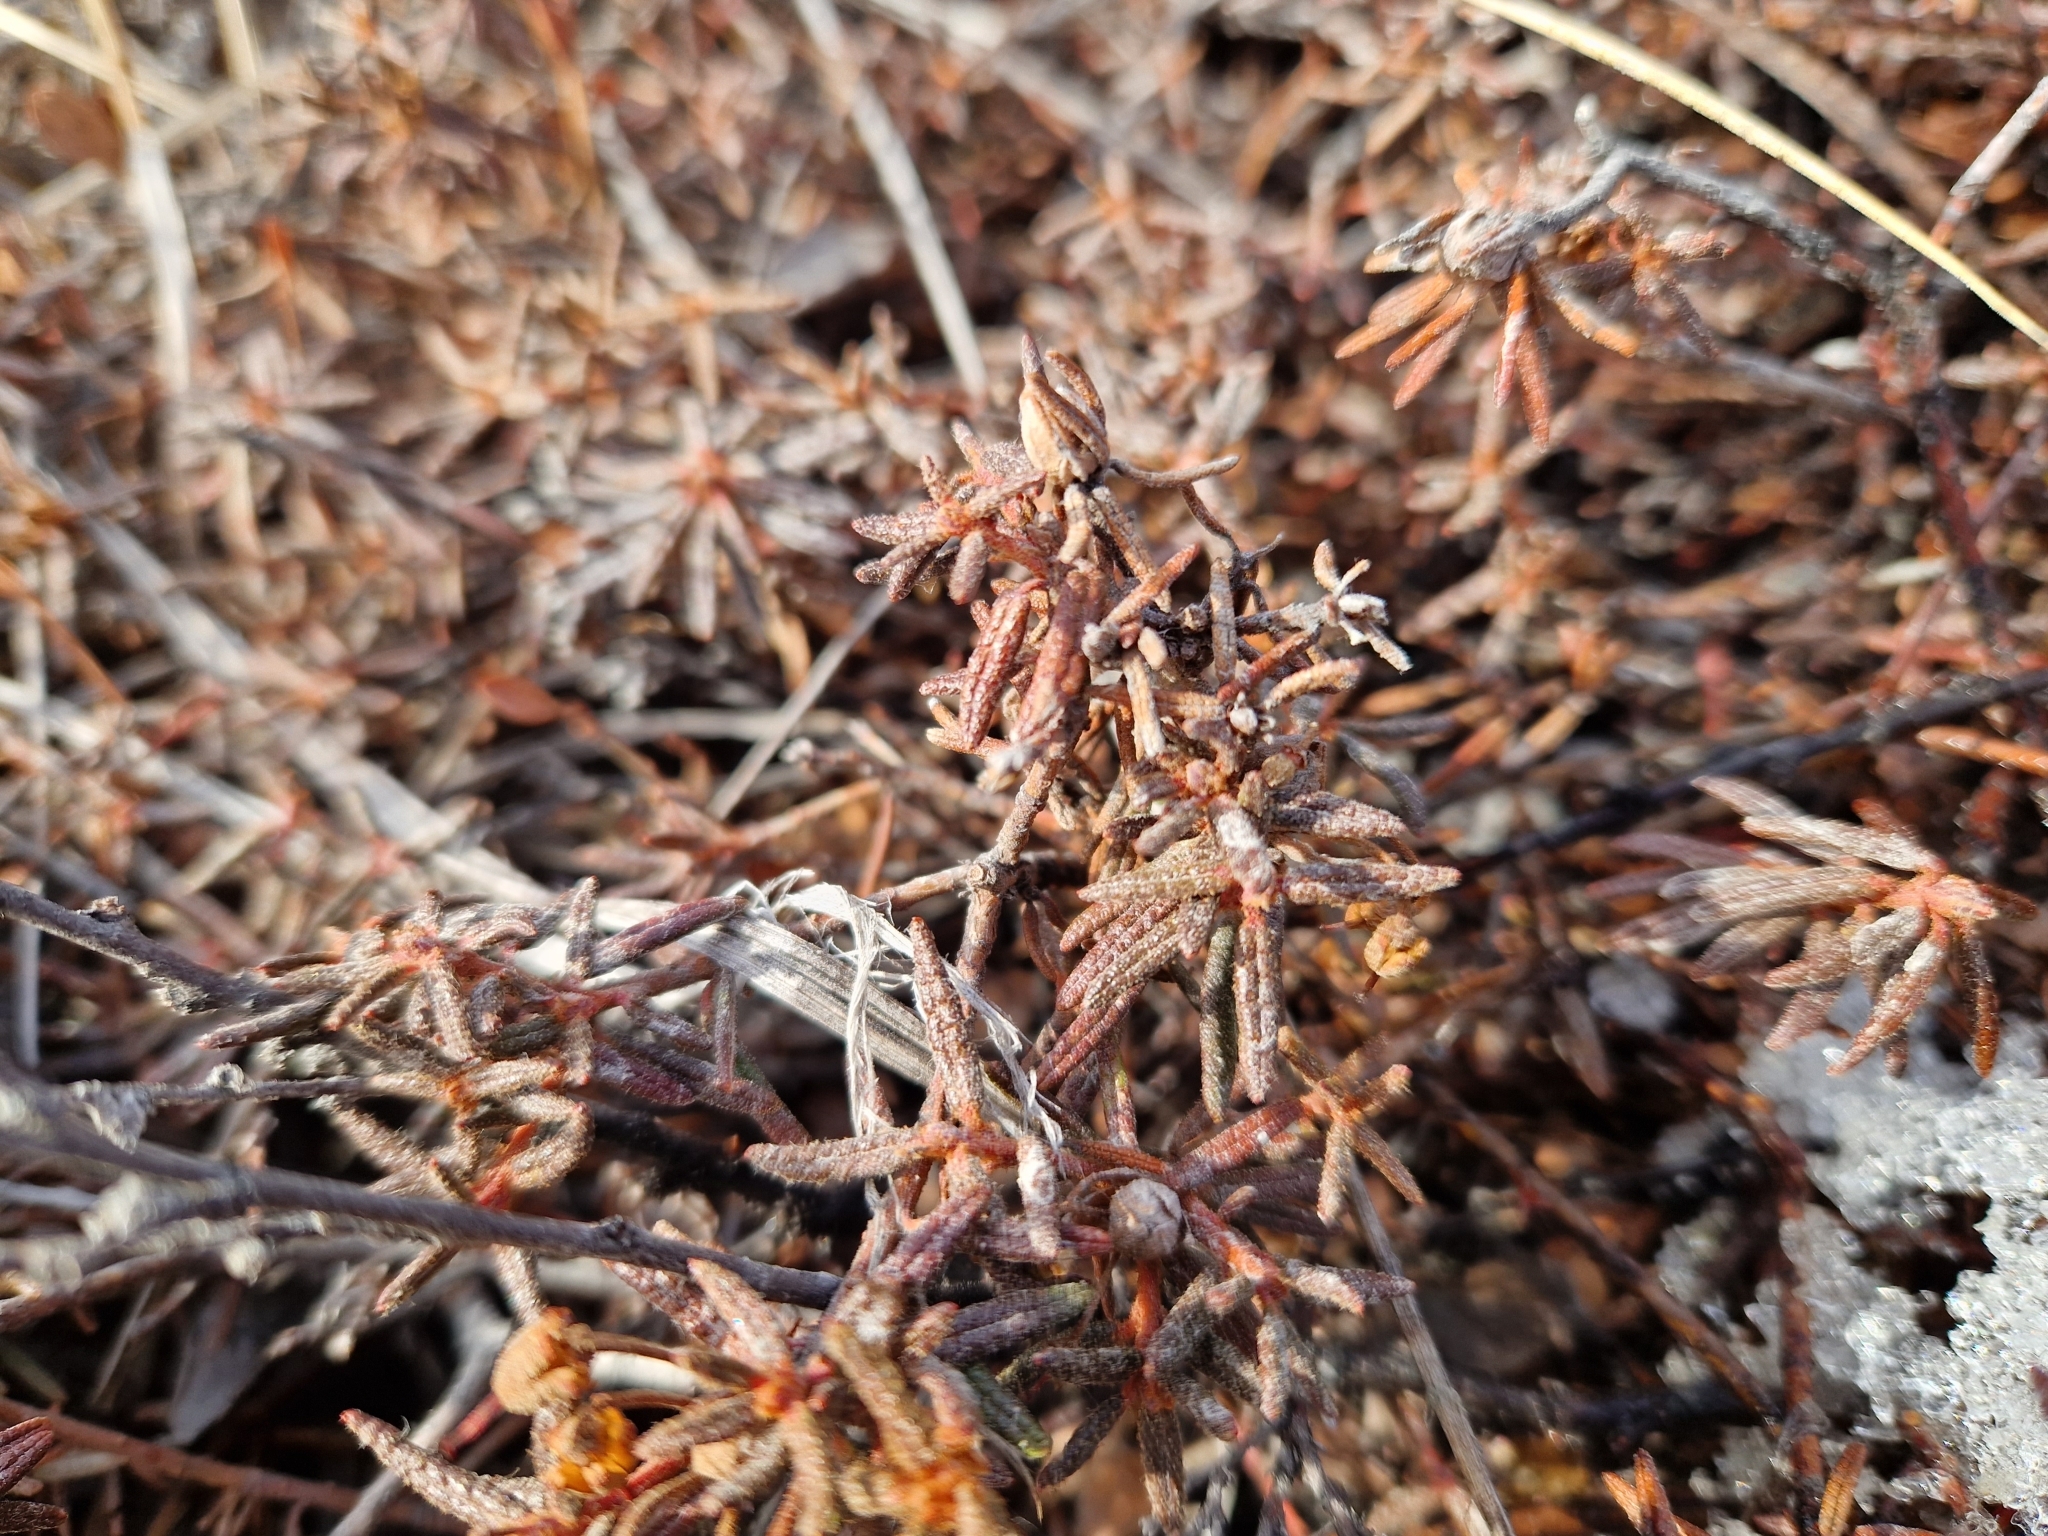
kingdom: Plantae
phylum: Tracheophyta
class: Magnoliopsida
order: Ericales
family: Ericaceae
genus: Rhododendron
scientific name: Rhododendron tomentosum
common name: Marsh labrador tea
